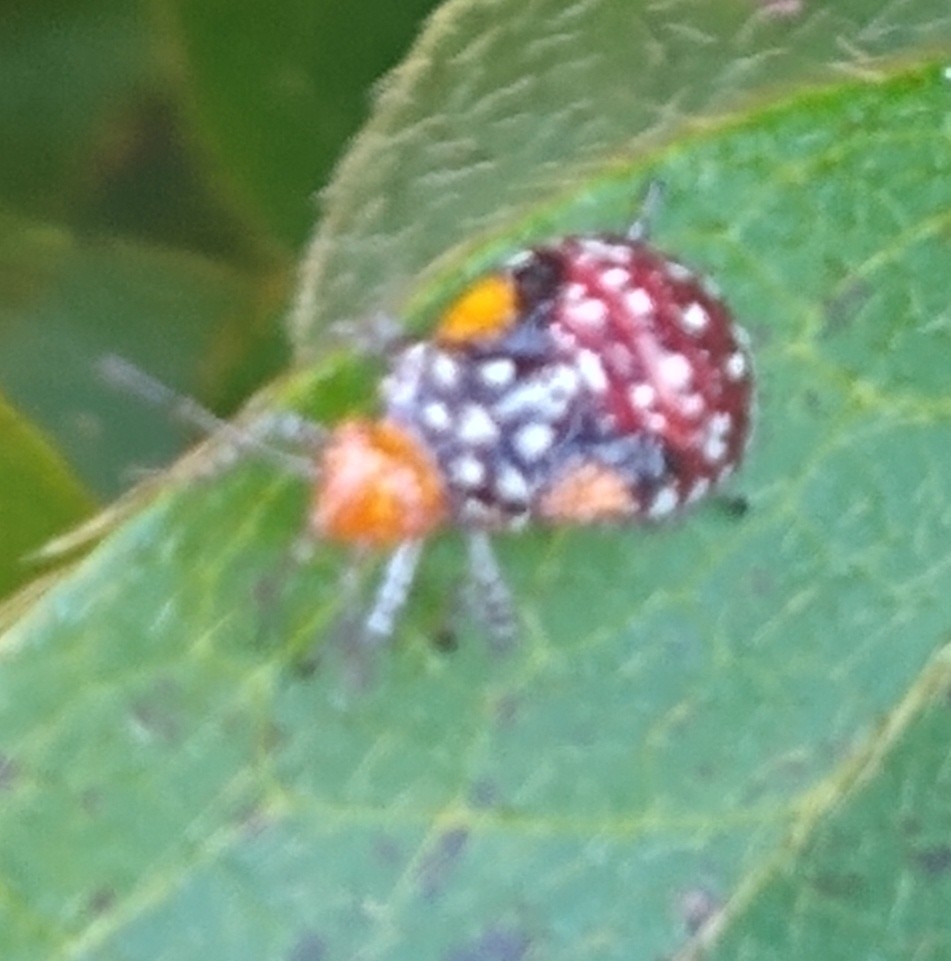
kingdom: Animalia
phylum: Arthropoda
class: Insecta
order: Hemiptera
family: Rhopalidae
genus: Niesthrea
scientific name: Niesthrea louisianica
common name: Scentless plant bug
